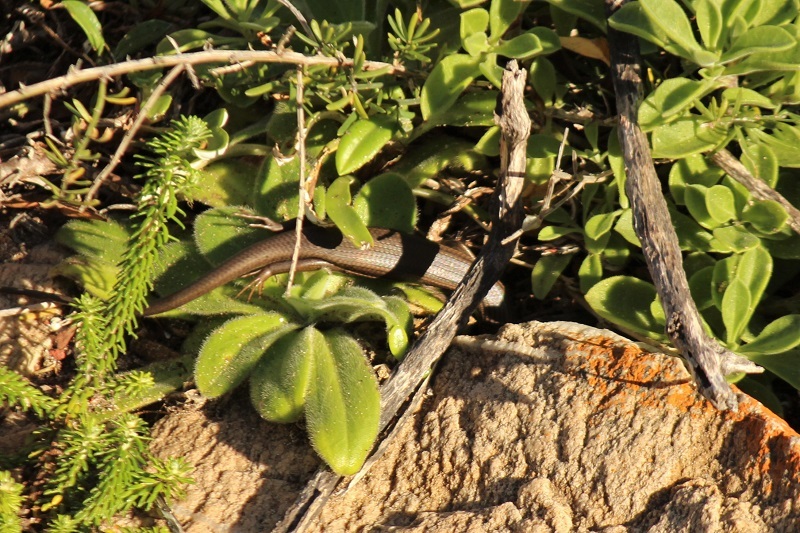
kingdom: Animalia
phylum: Chordata
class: Squamata
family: Scincidae
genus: Trachylepis
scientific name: Trachylepis homalocephala
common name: Red-sided skink
